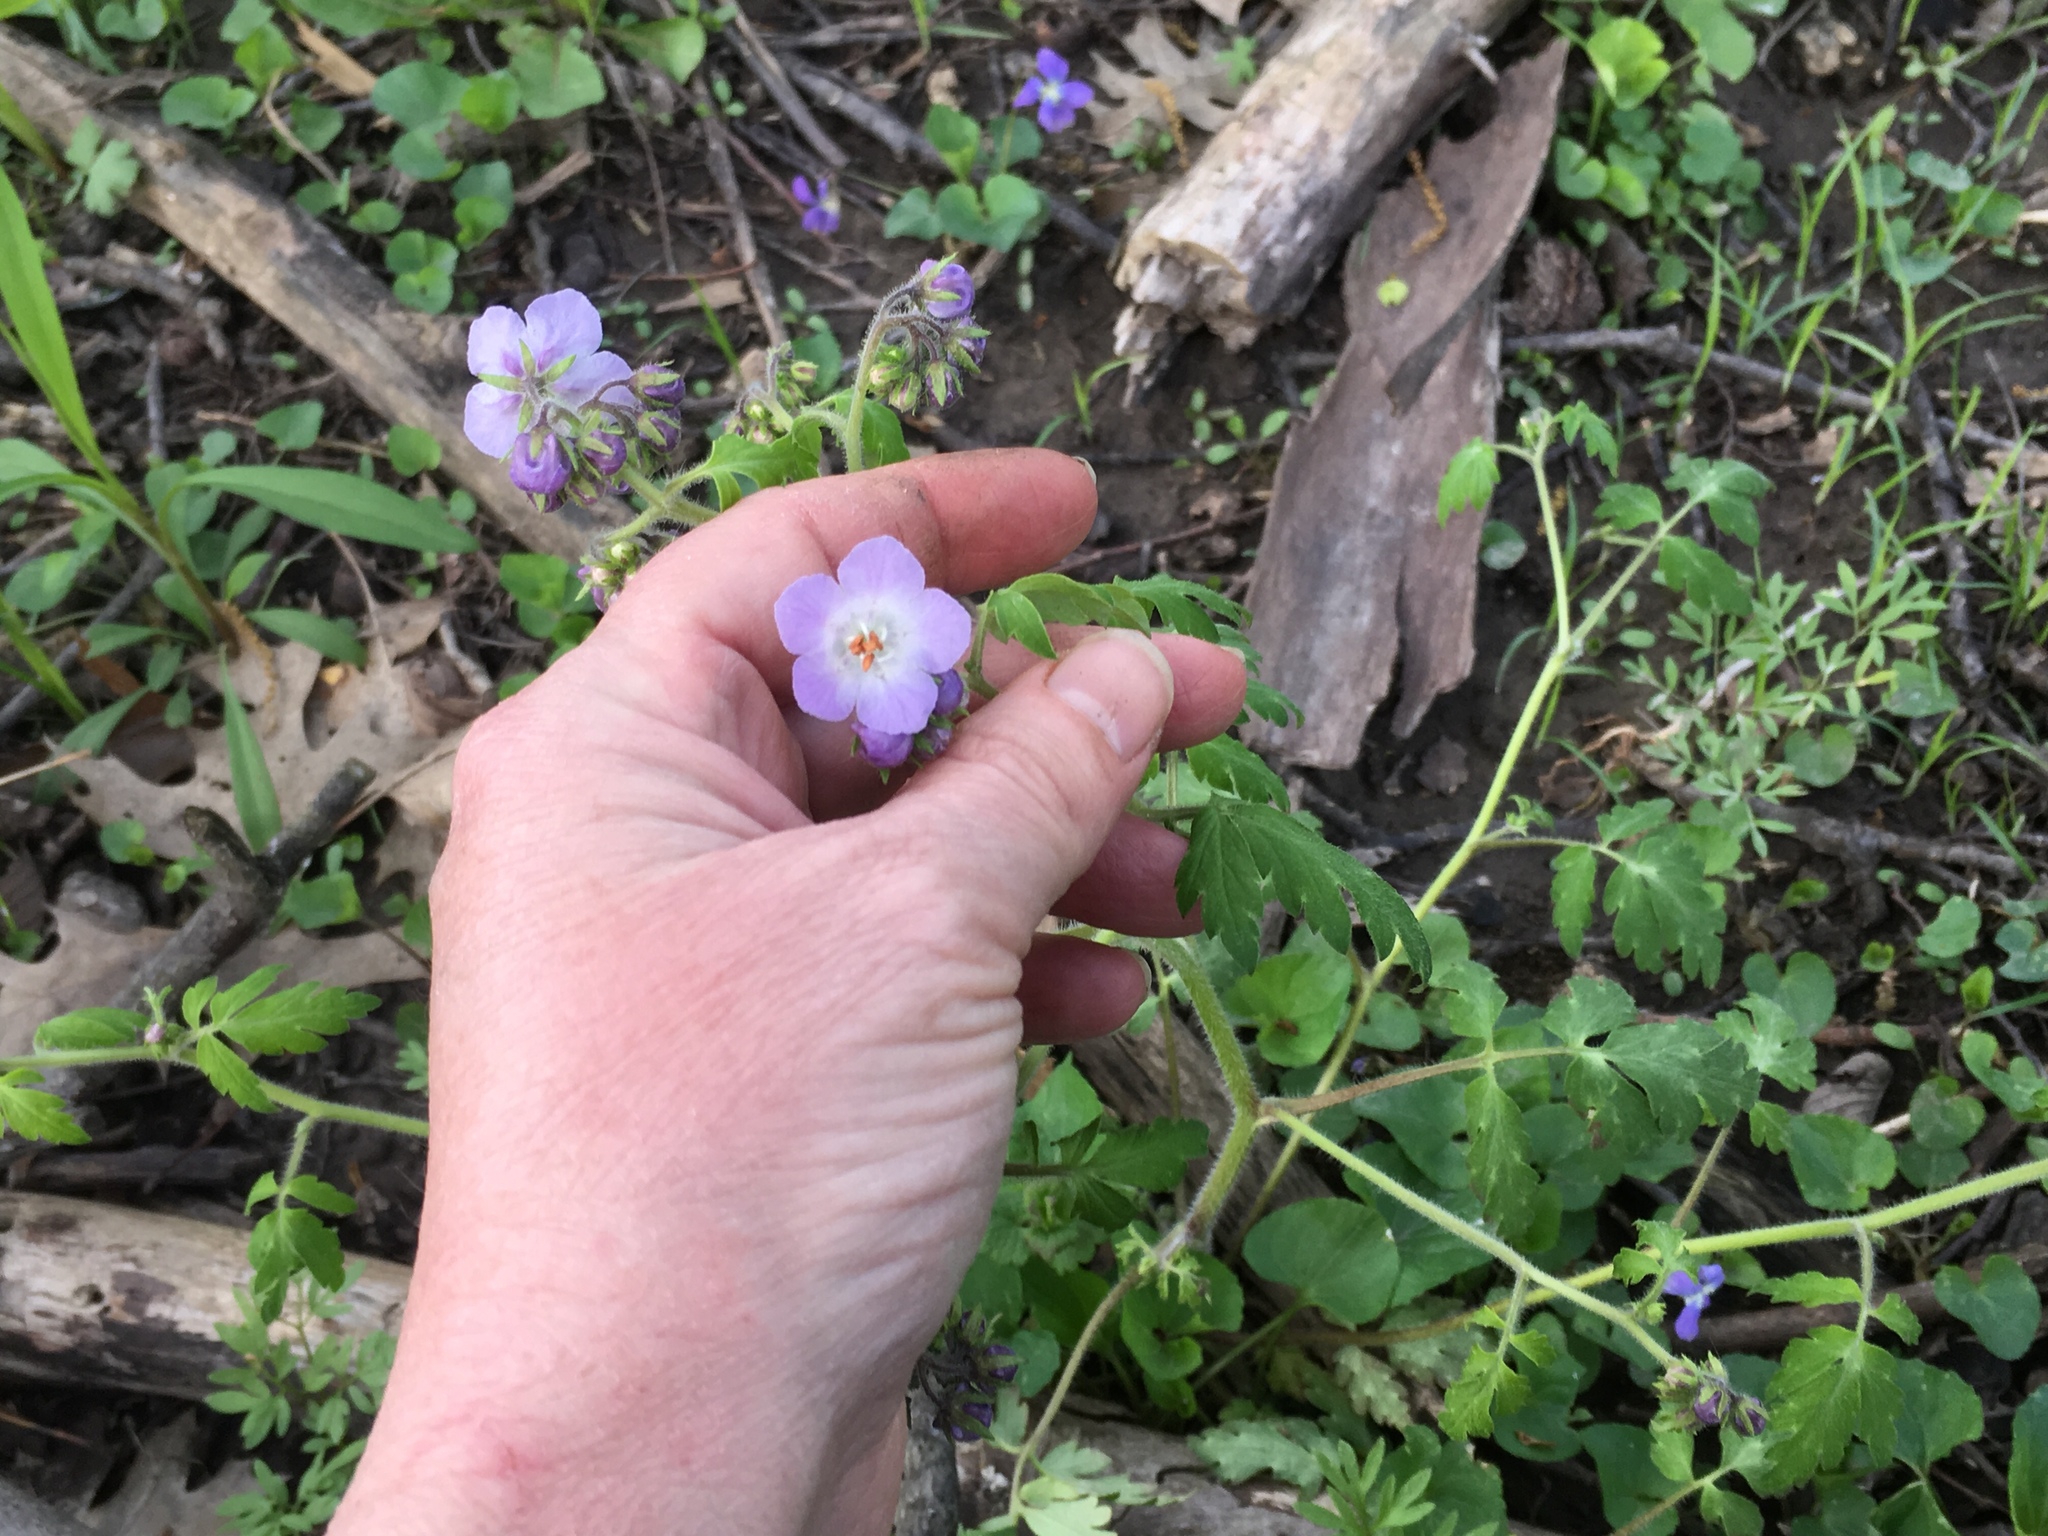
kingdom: Plantae
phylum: Tracheophyta
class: Magnoliopsida
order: Boraginales
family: Hydrophyllaceae
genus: Phacelia
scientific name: Phacelia bipinnatifida
